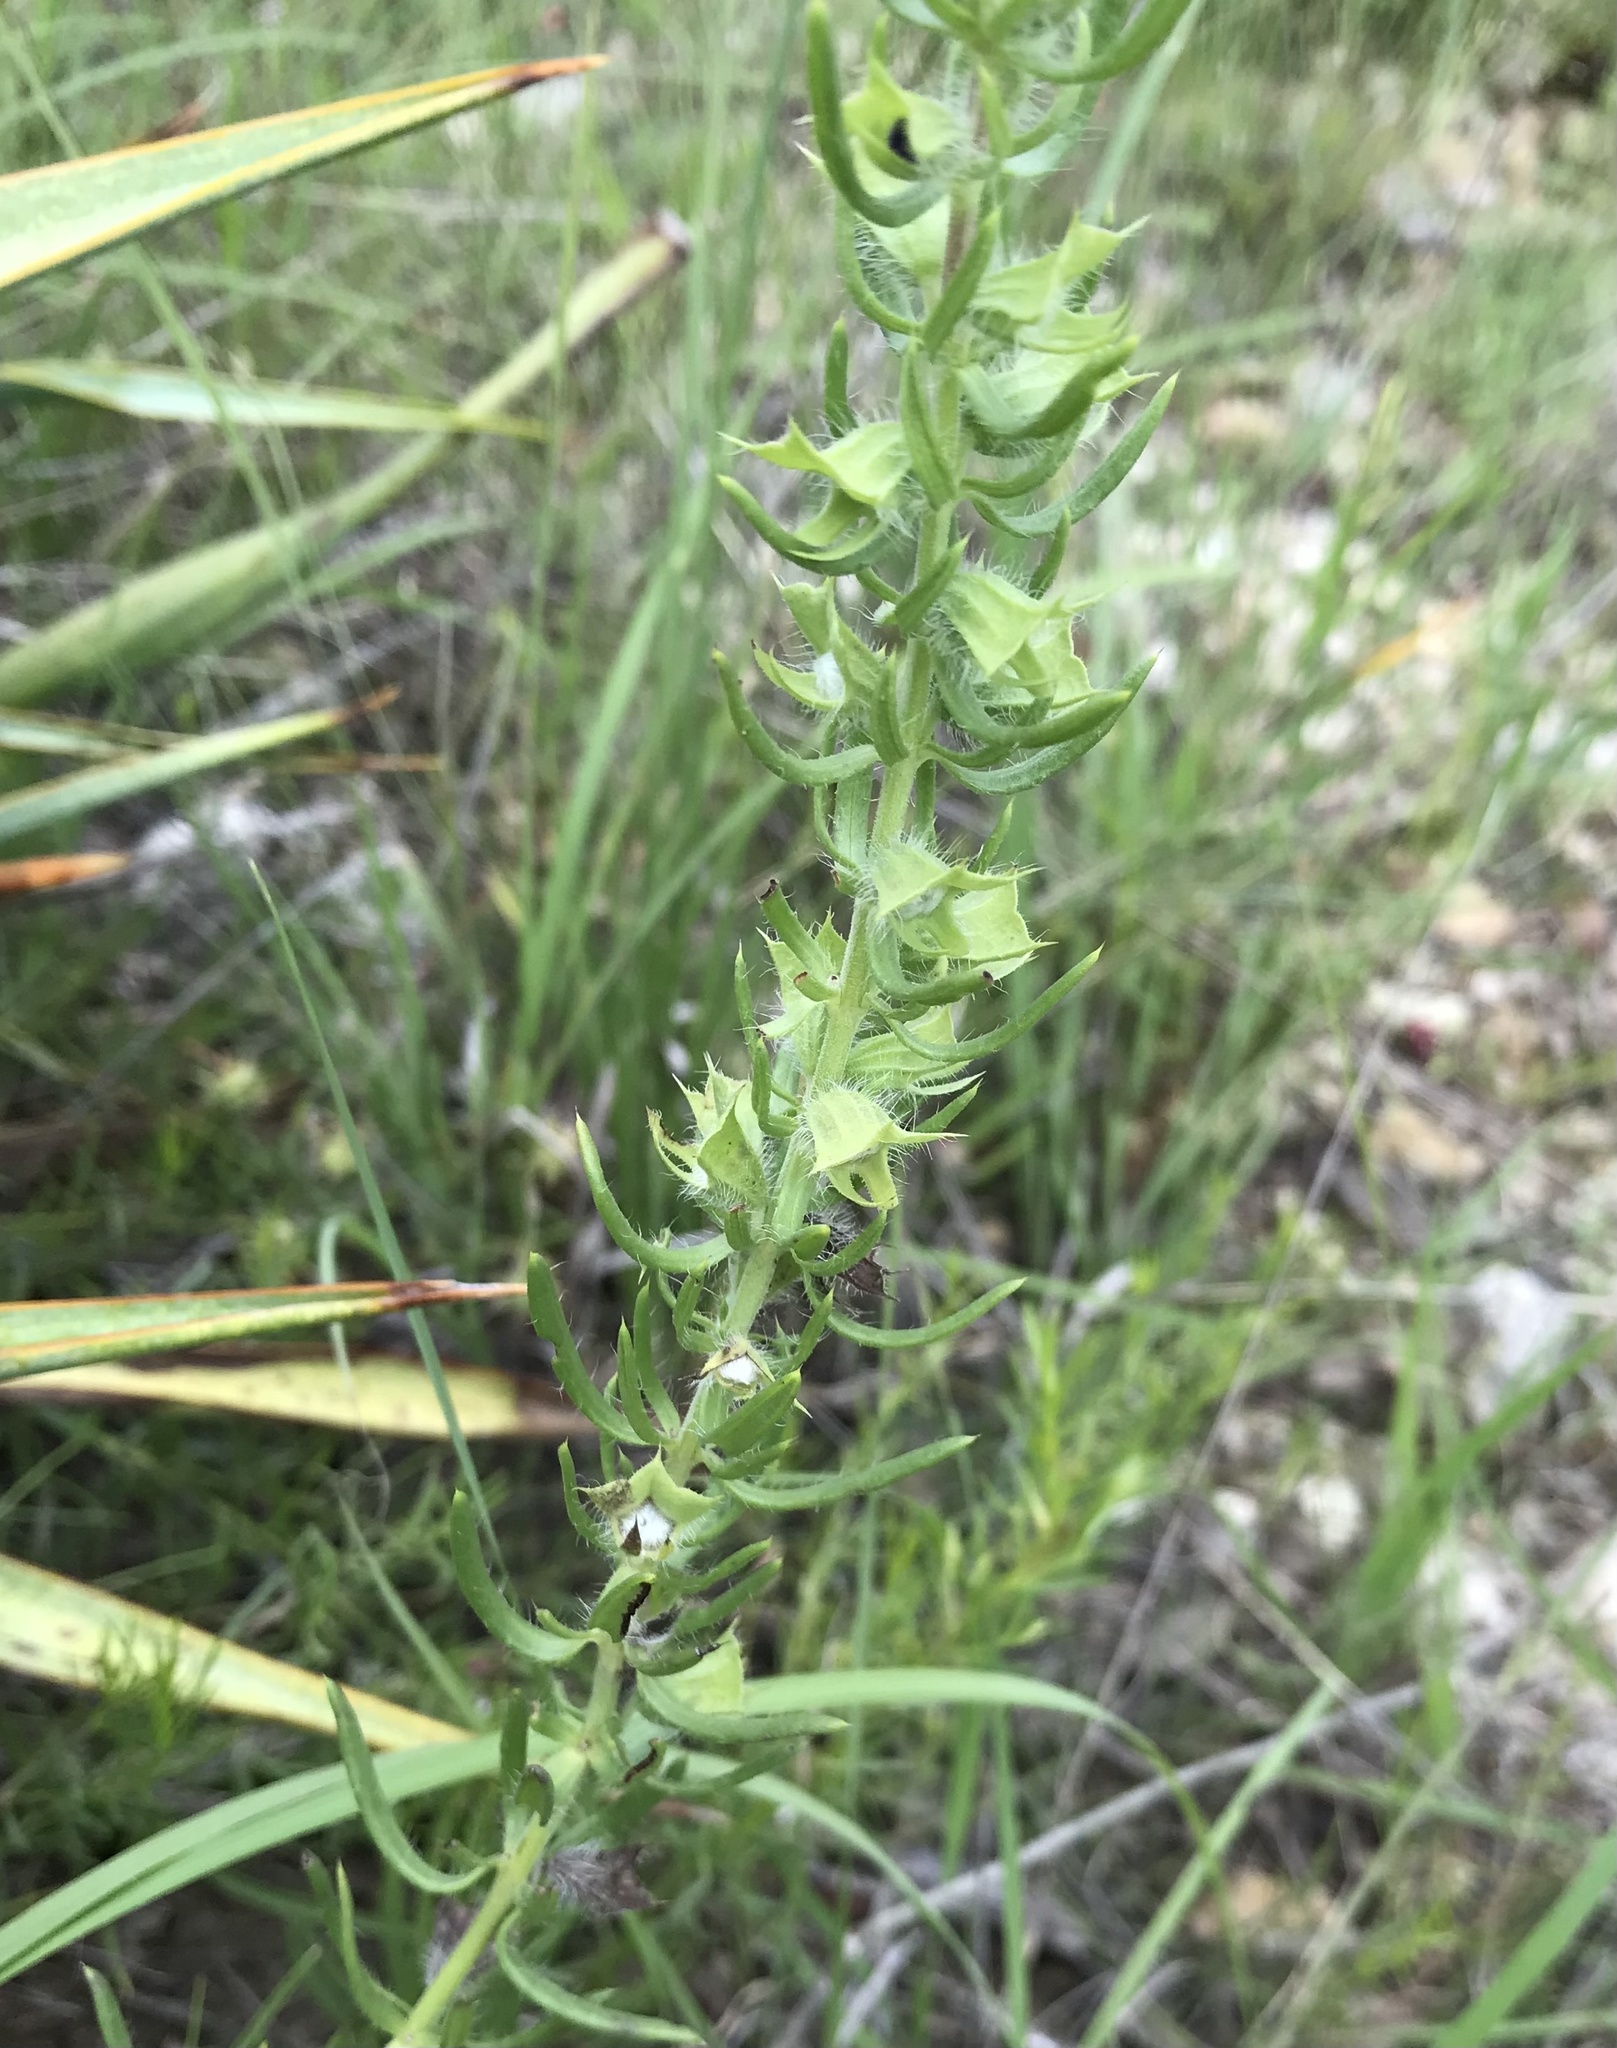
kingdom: Plantae
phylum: Tracheophyta
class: Magnoliopsida
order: Lamiales
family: Lamiaceae
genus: Salvia
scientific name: Salvia
